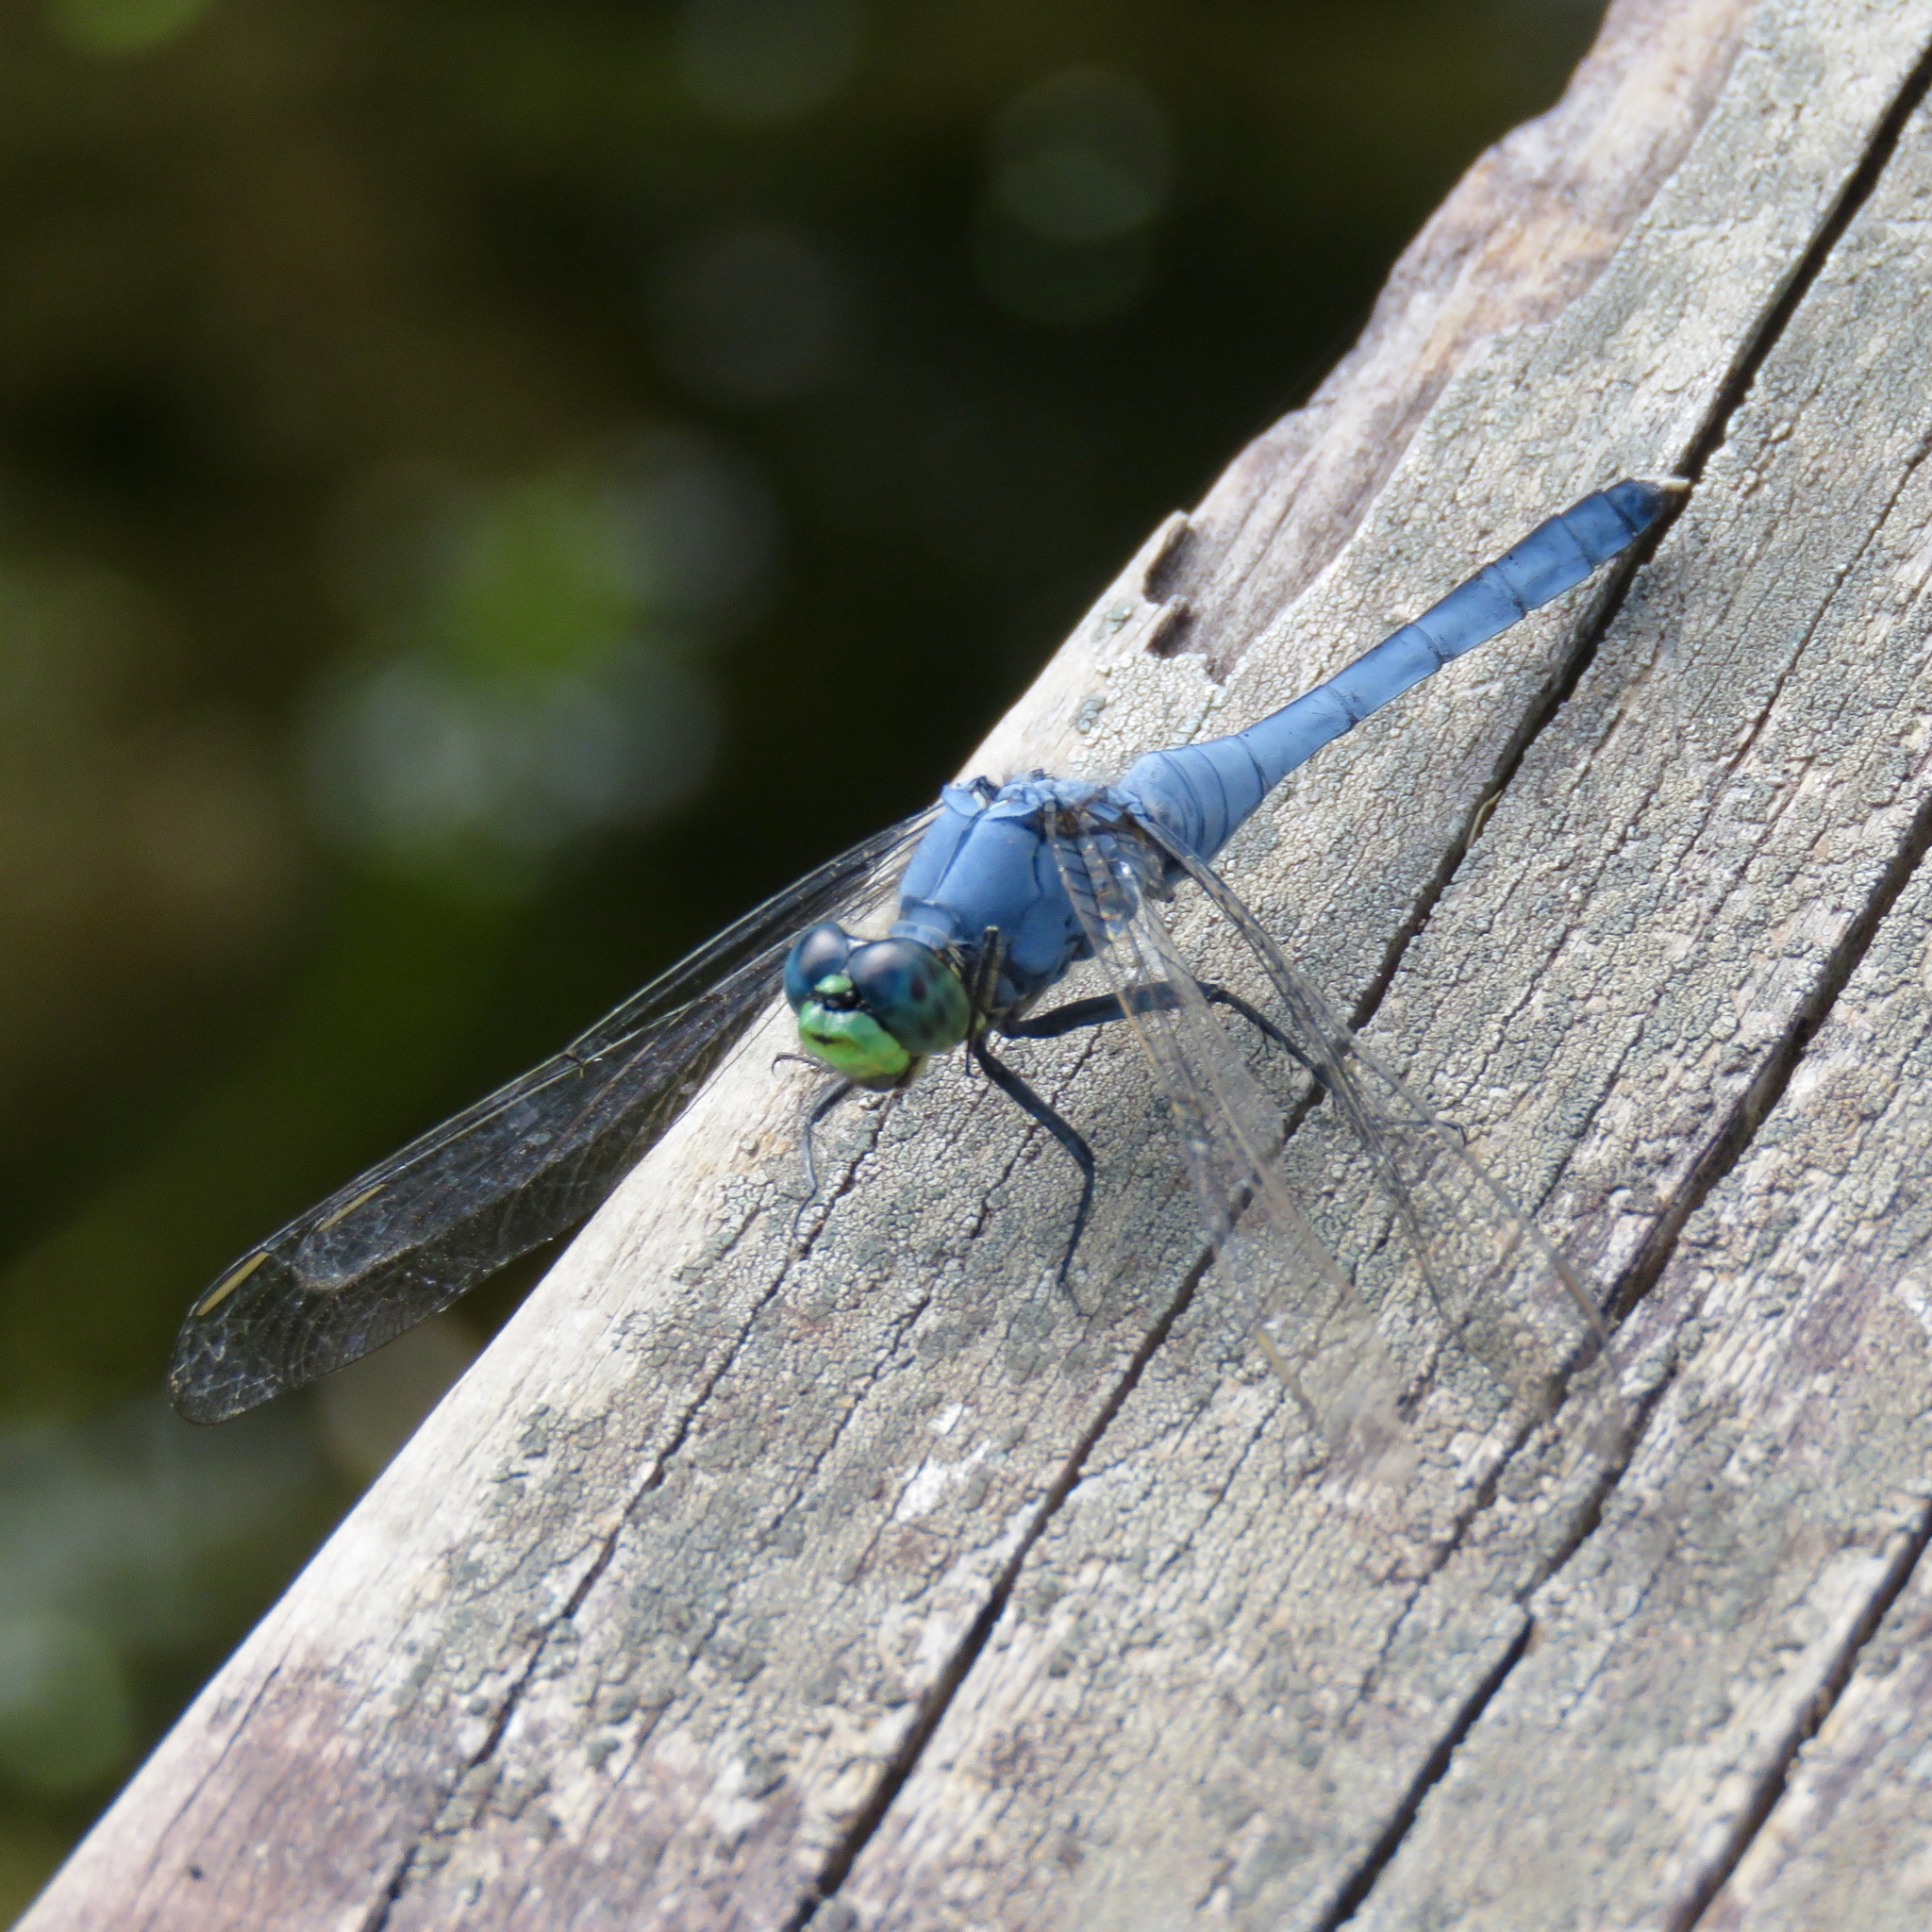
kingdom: Animalia
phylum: Arthropoda
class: Insecta
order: Odonata
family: Libellulidae
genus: Erythemis
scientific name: Erythemis simplicicollis
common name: Eastern pondhawk
